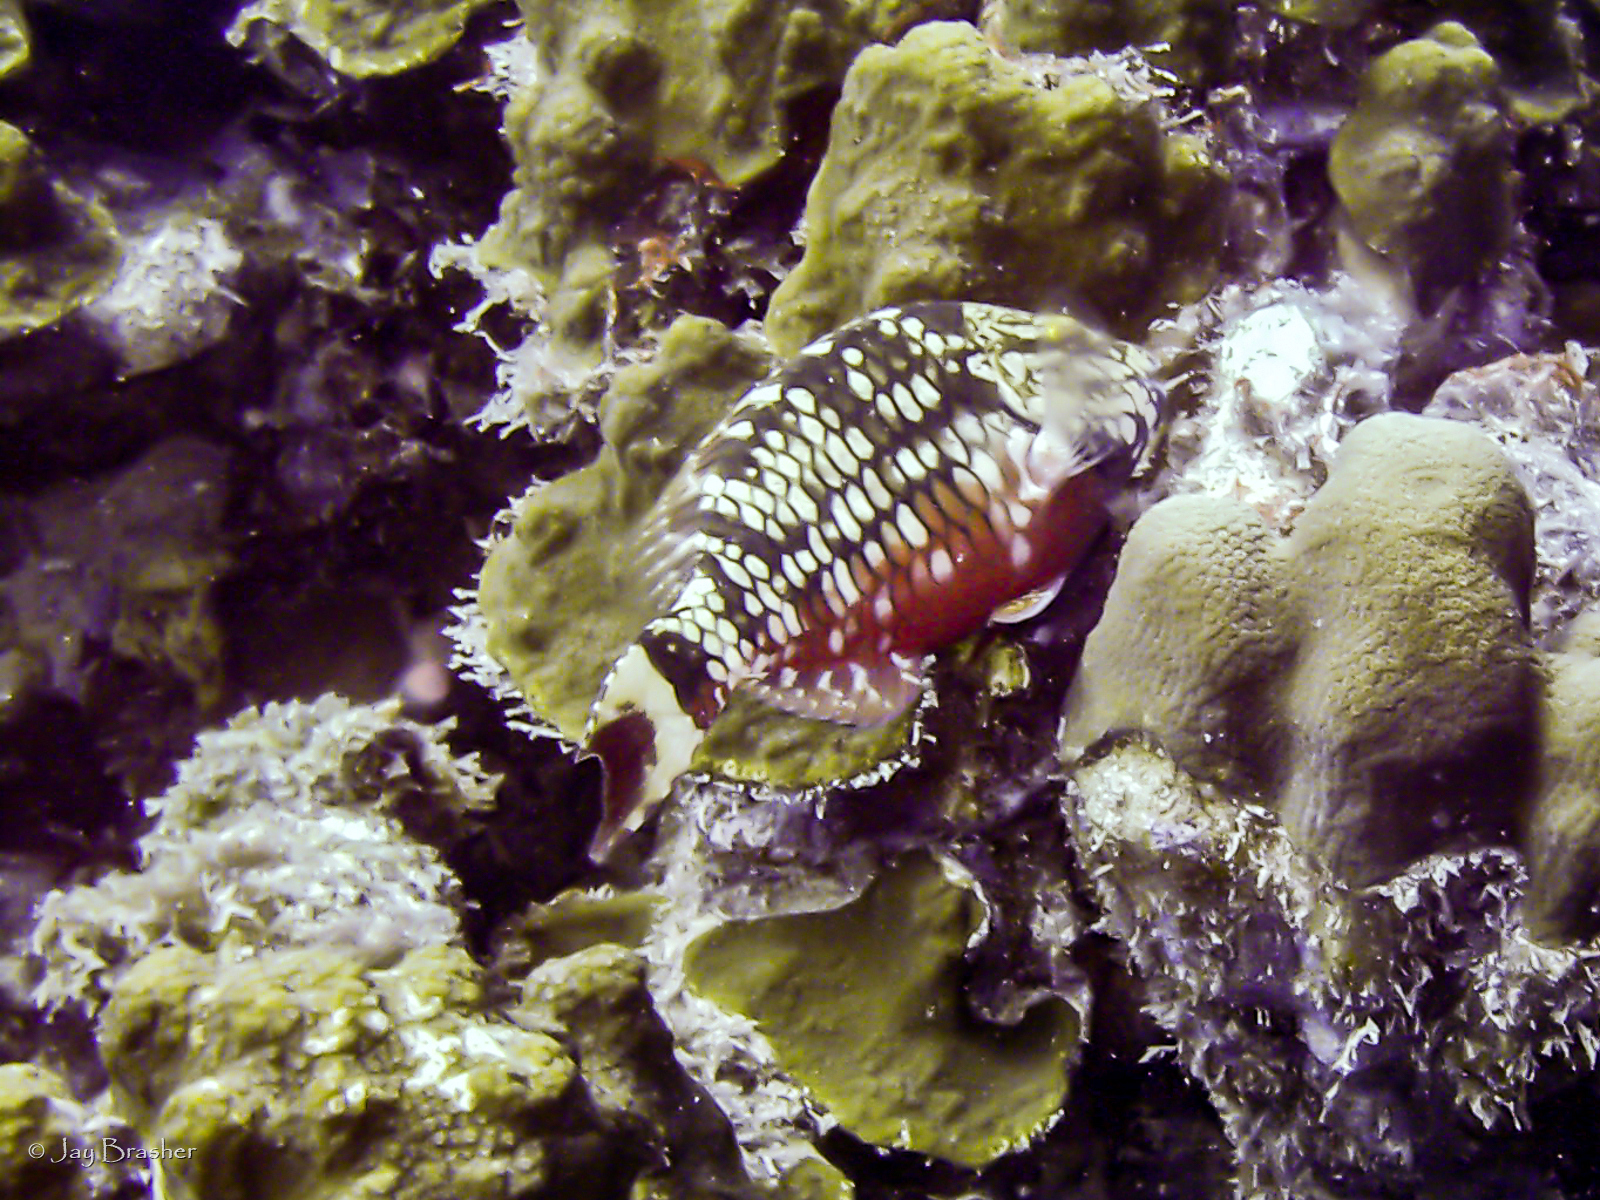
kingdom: Animalia
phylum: Chordata
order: Perciformes
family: Scaridae
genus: Sparisoma
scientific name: Sparisoma viride
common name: Stoplight parrotfish
